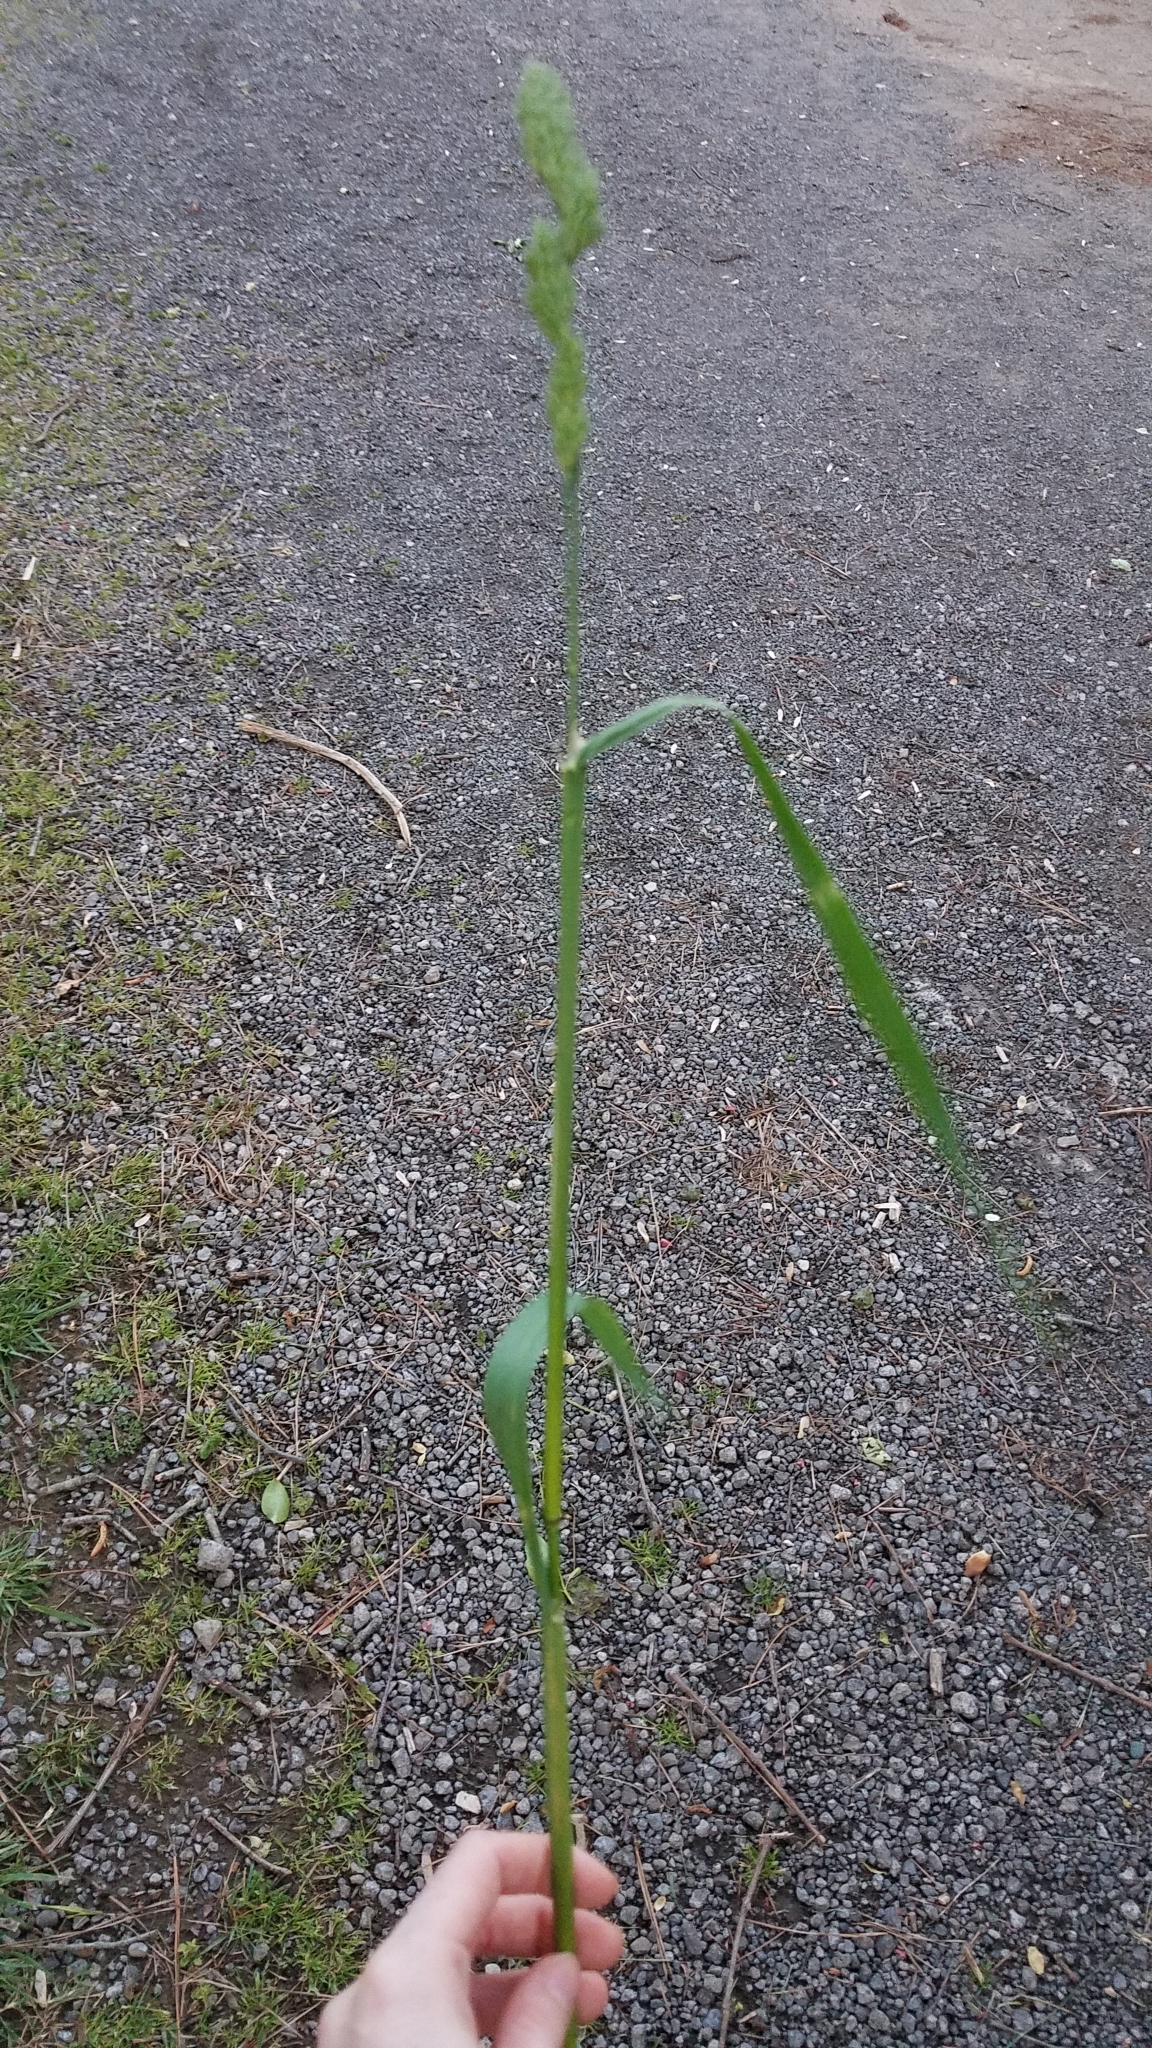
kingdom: Plantae
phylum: Tracheophyta
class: Liliopsida
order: Poales
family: Poaceae
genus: Dactylis
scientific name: Dactylis glomerata
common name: Orchardgrass
